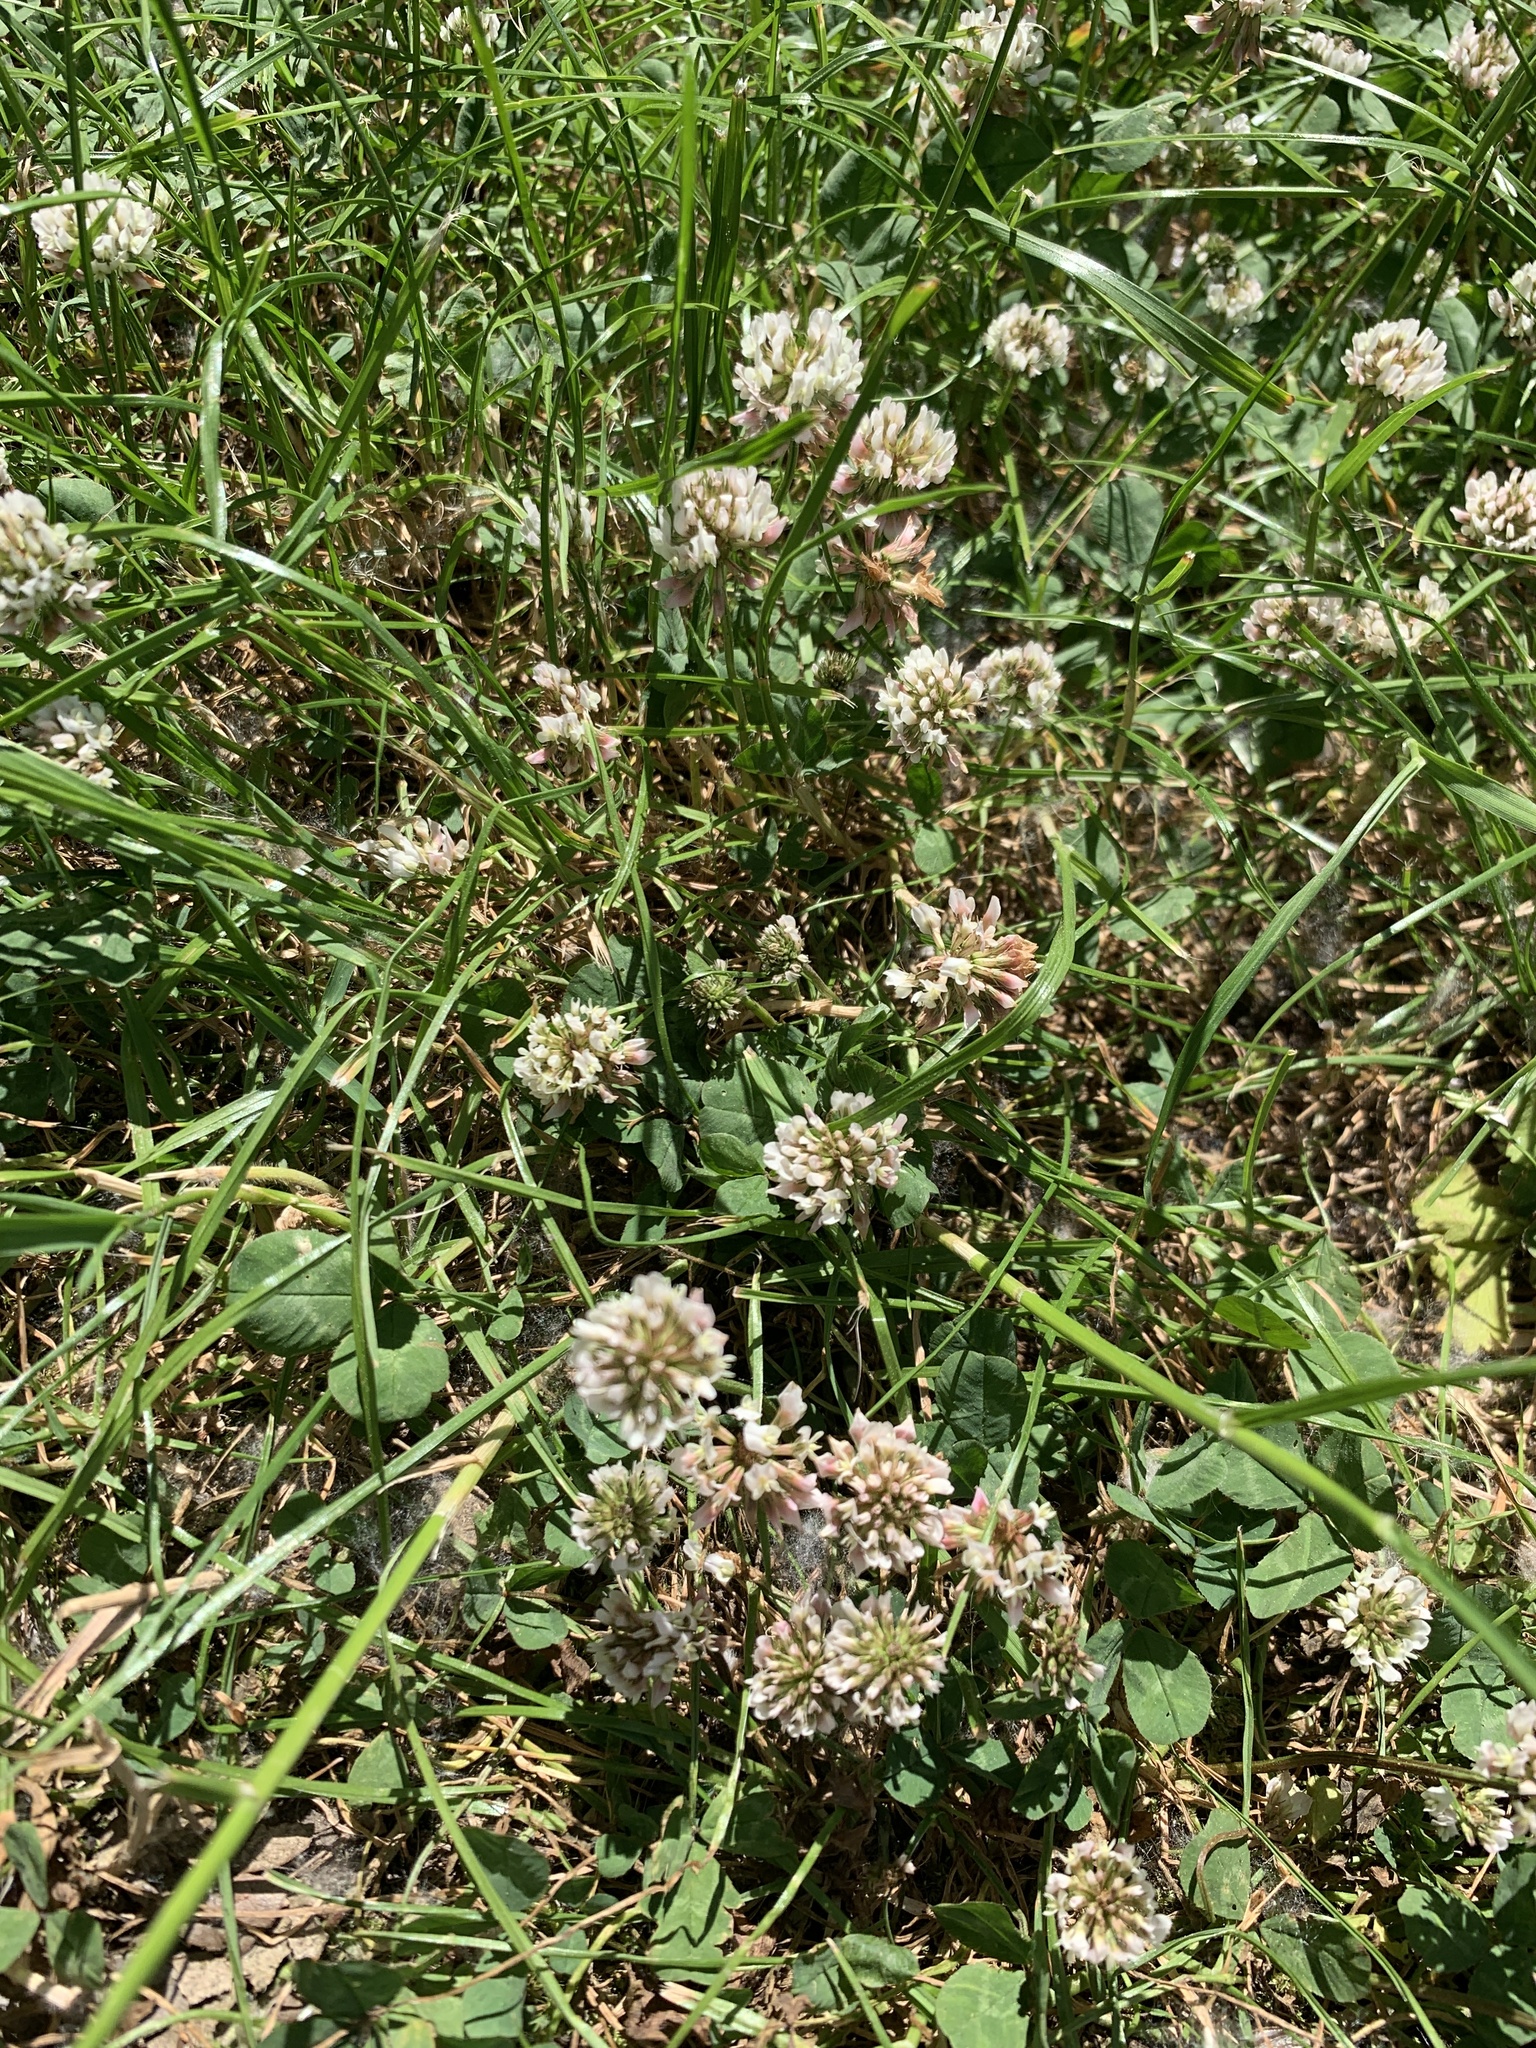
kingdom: Plantae
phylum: Tracheophyta
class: Magnoliopsida
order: Fabales
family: Fabaceae
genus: Trifolium
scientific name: Trifolium repens
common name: White clover
